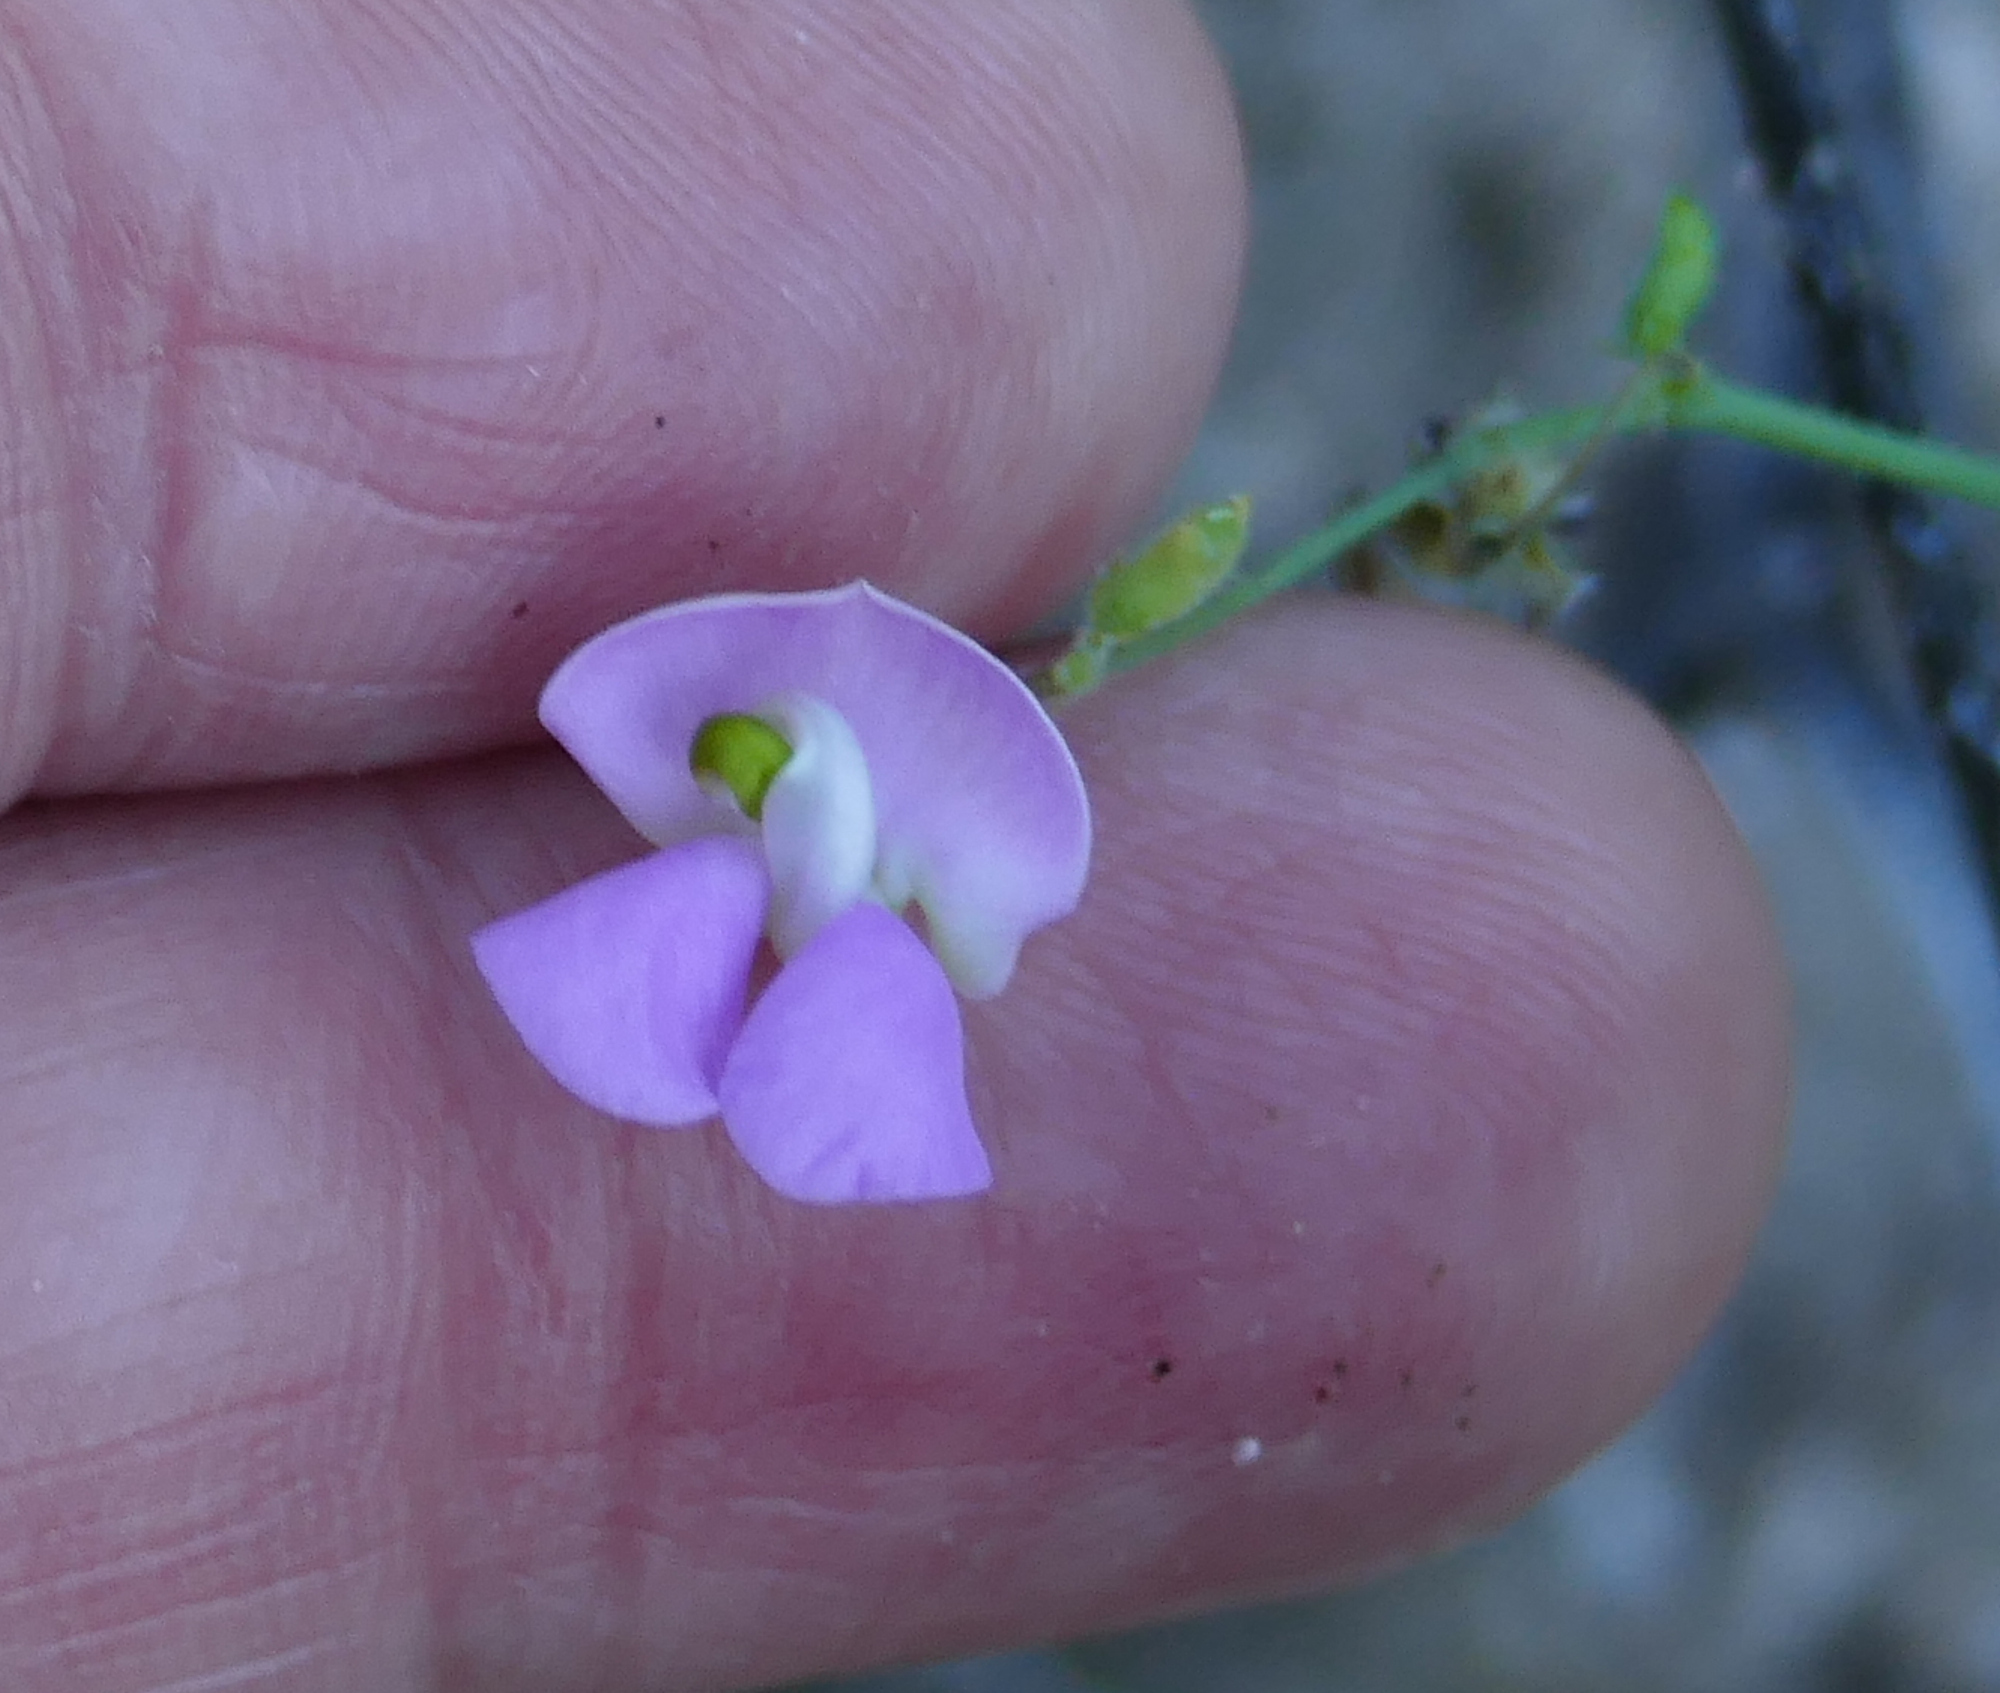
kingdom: Plantae
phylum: Tracheophyta
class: Magnoliopsida
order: Fabales
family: Fabaceae
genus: Phaseolus
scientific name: Phaseolus acutifolius
